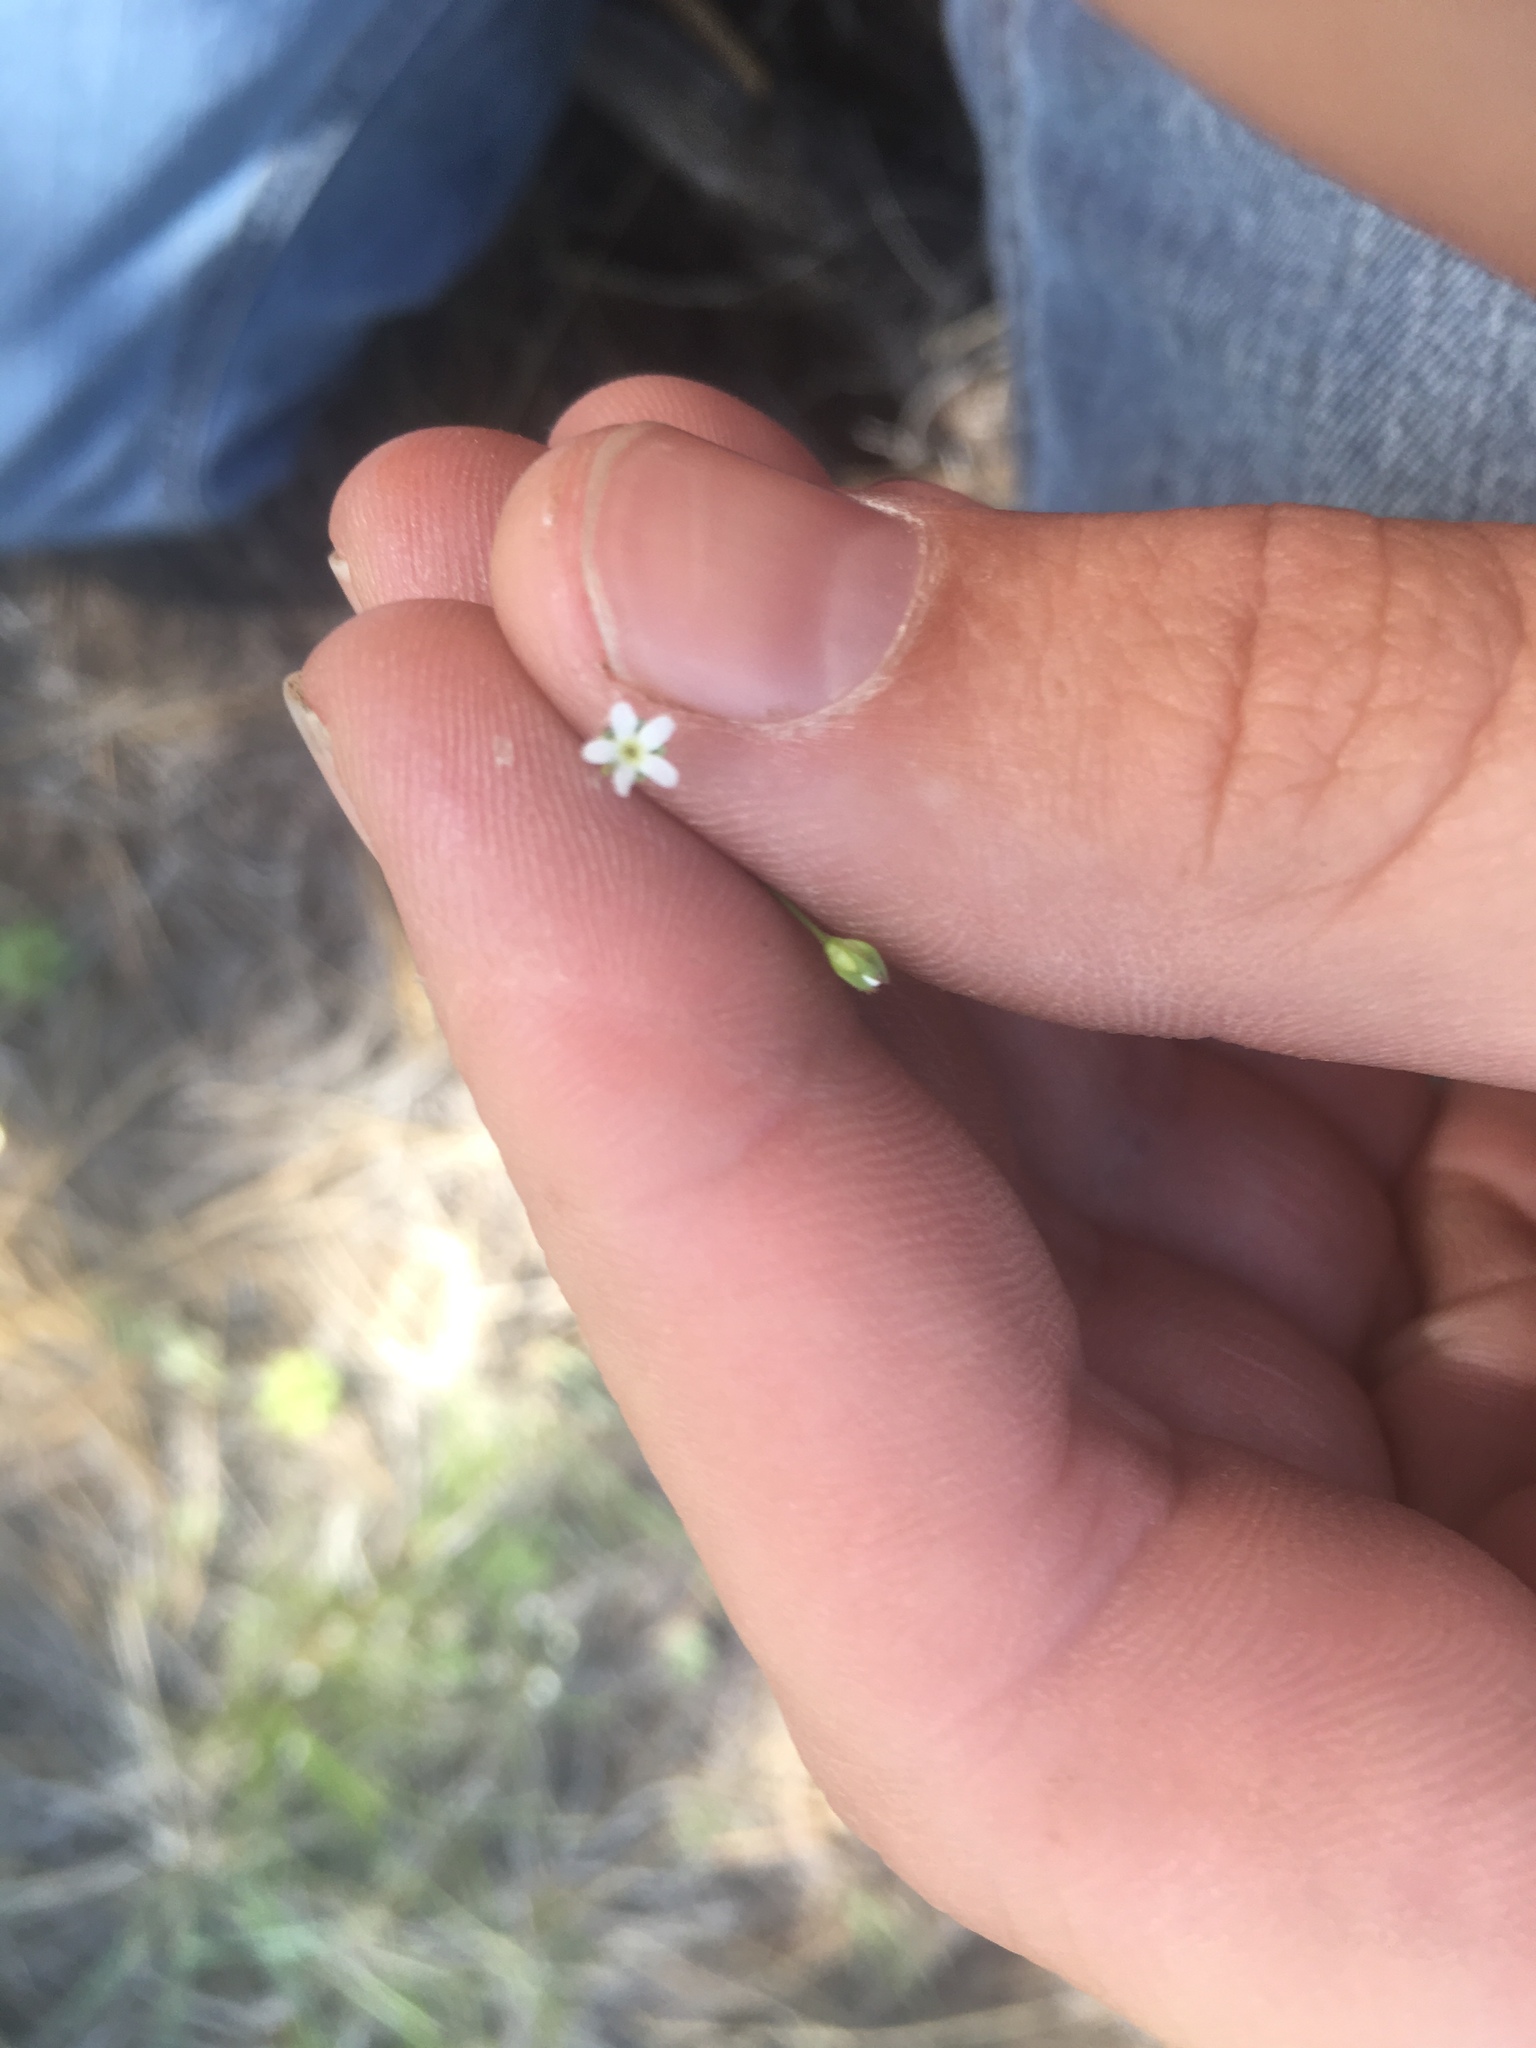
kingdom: Plantae
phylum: Tracheophyta
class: Magnoliopsida
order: Ericales
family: Primulaceae
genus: Androsace
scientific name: Androsace septentrionalis
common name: Hairy northern fairy-candelabra
